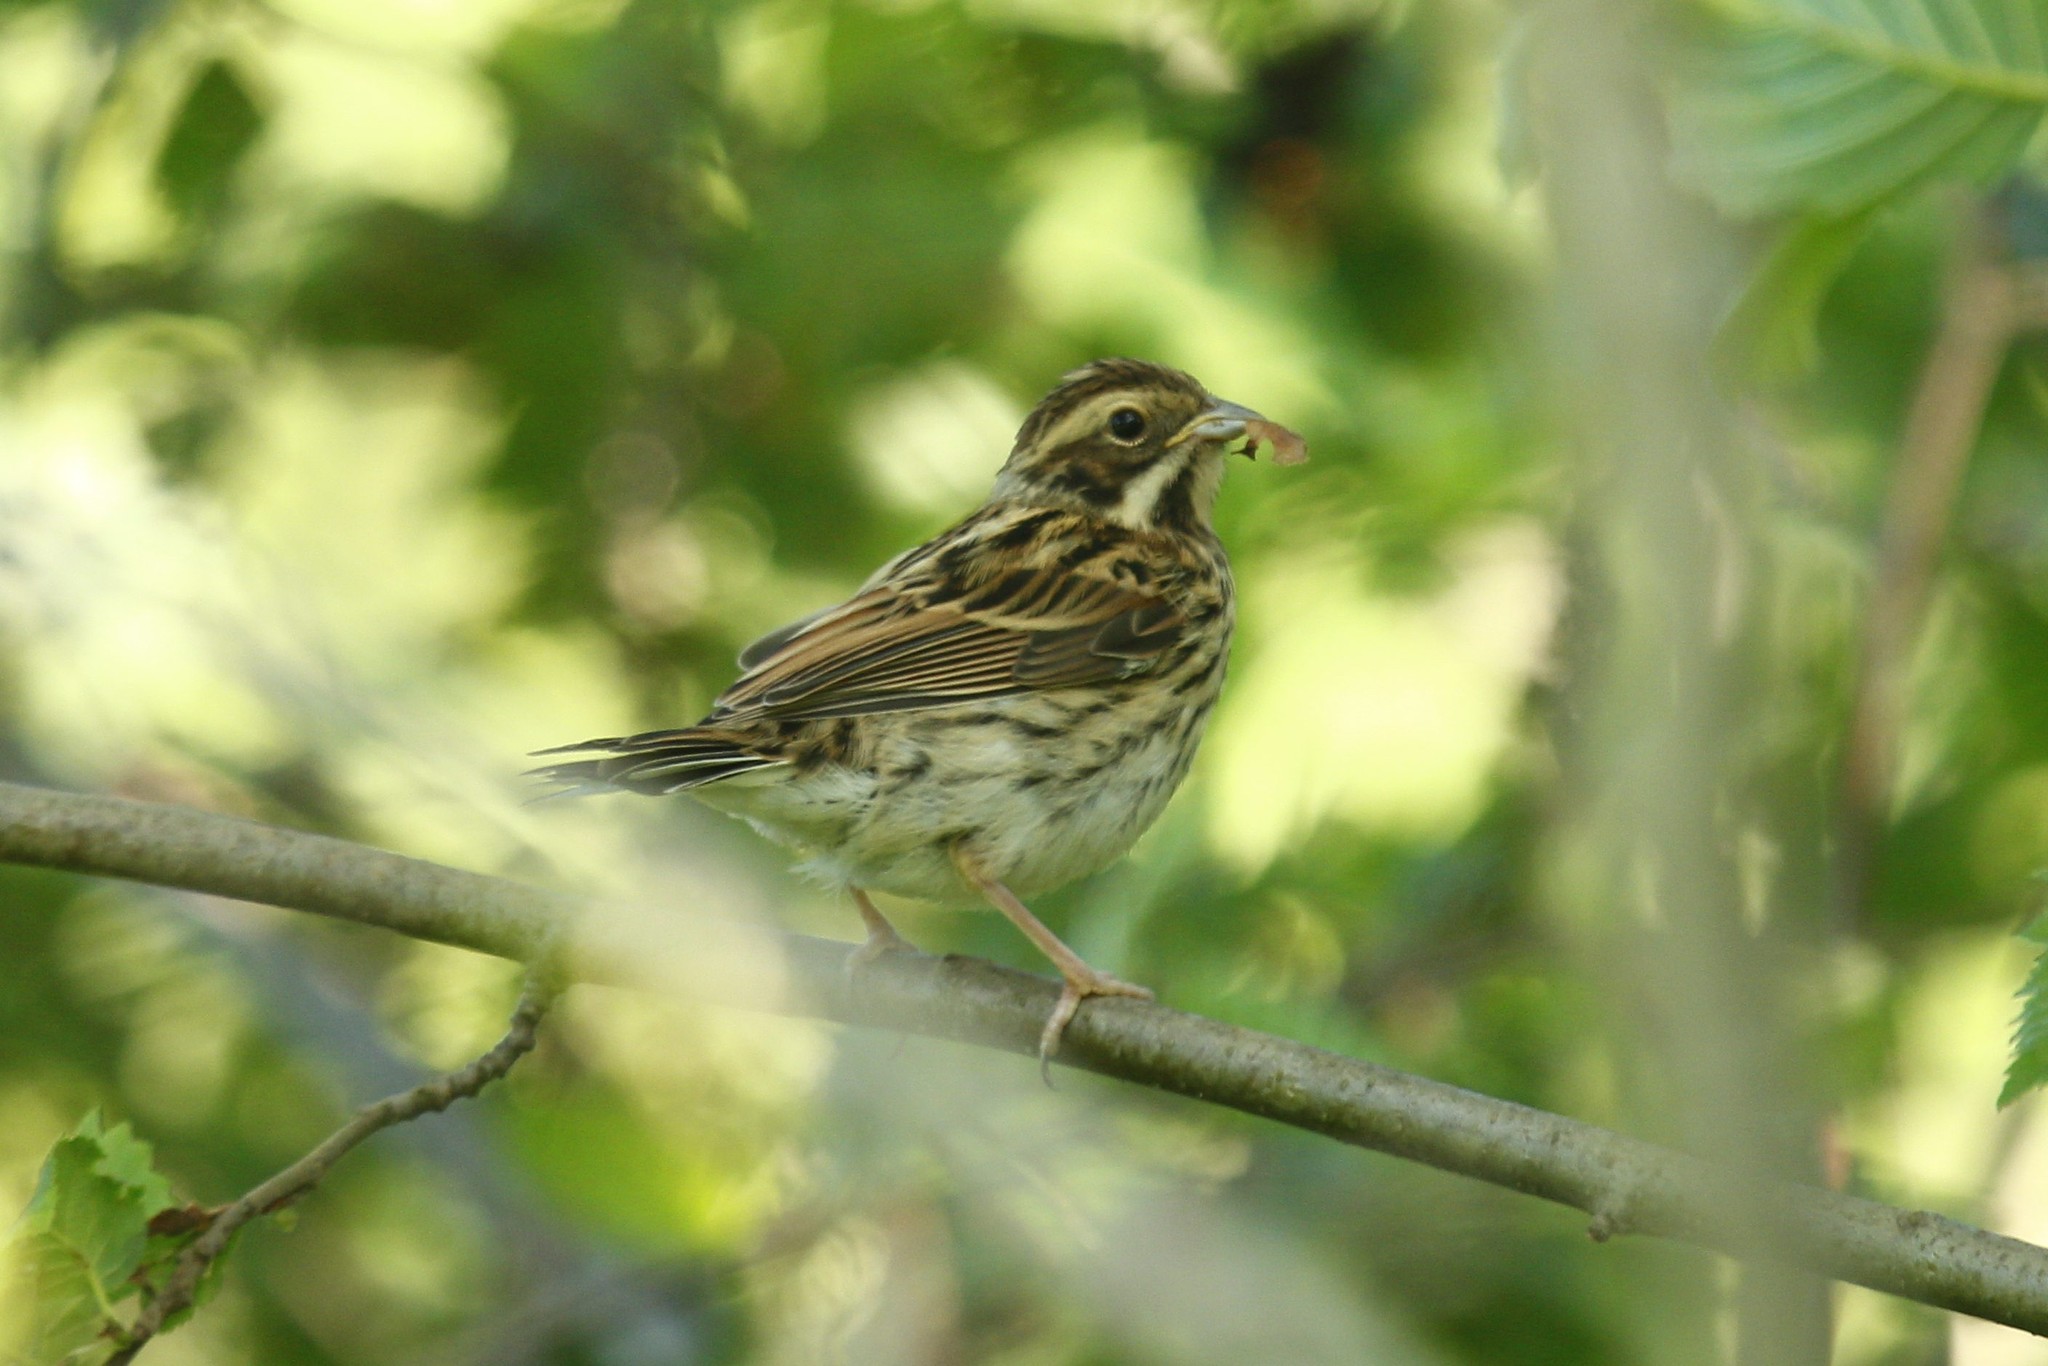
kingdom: Animalia
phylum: Chordata
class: Aves
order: Passeriformes
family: Emberizidae
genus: Emberiza
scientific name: Emberiza schoeniclus
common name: Reed bunting
